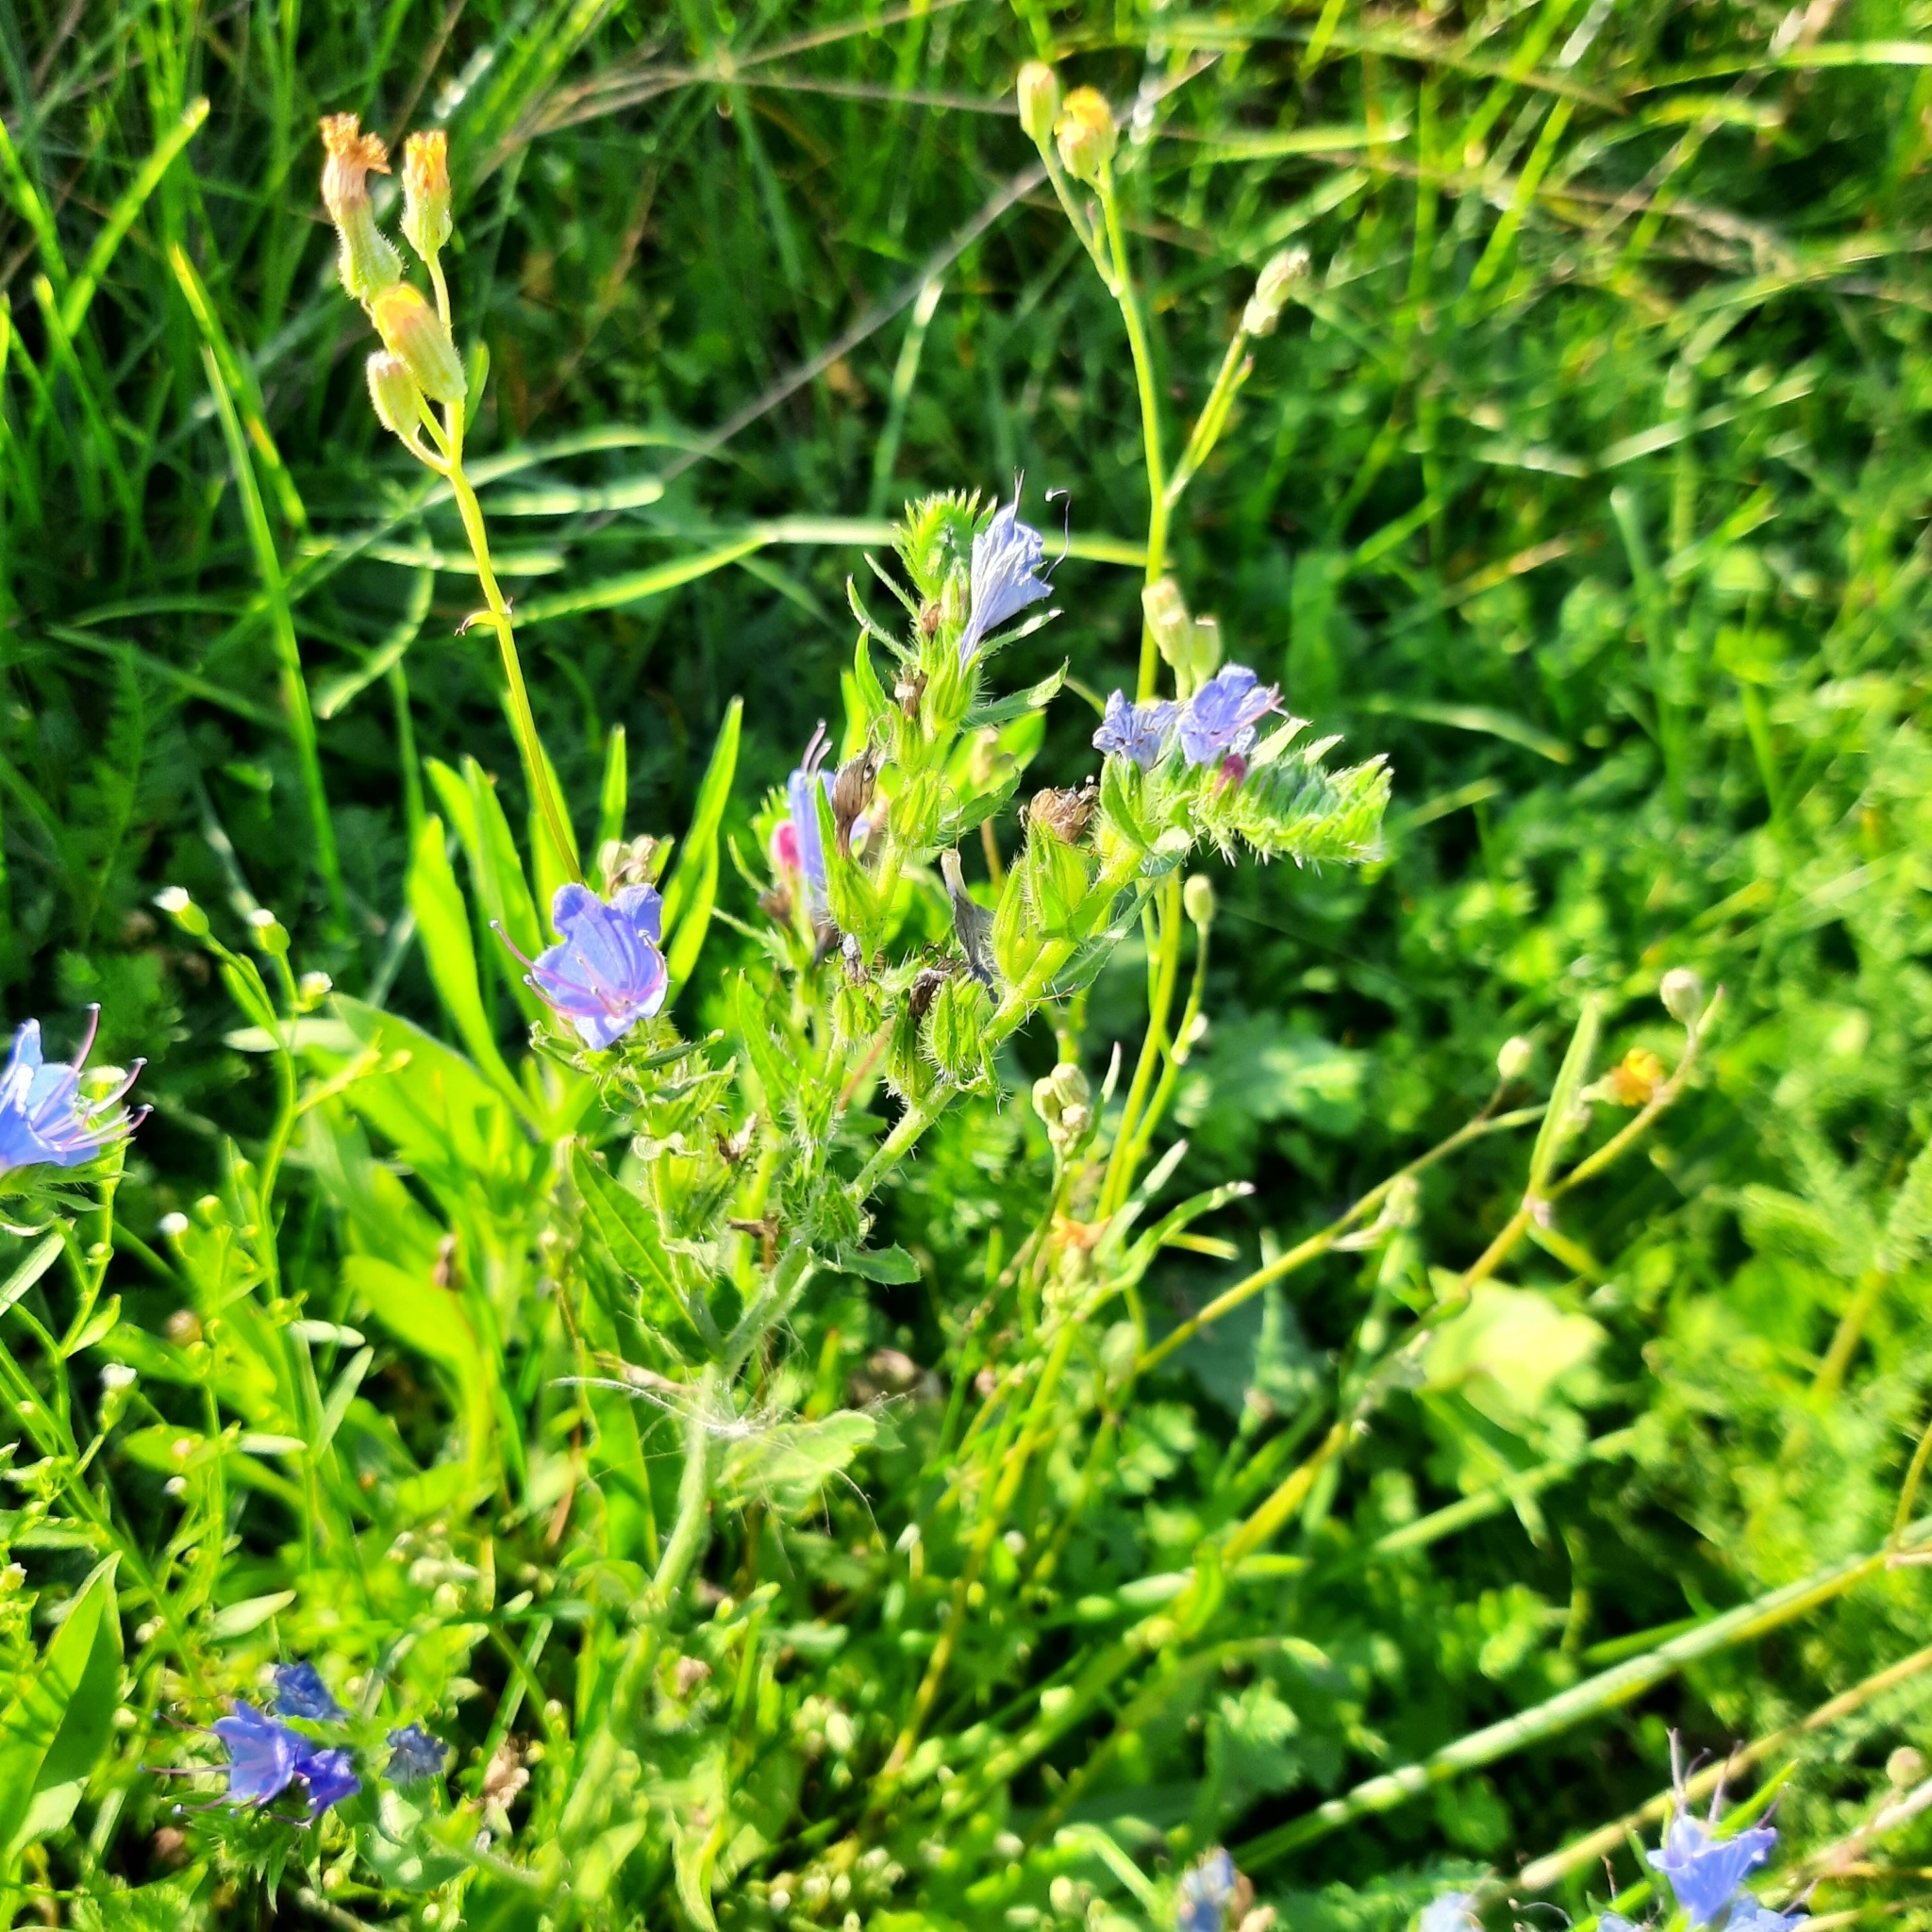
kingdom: Plantae
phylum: Tracheophyta
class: Magnoliopsida
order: Boraginales
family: Boraginaceae
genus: Echium
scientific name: Echium vulgare
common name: Common viper's bugloss
